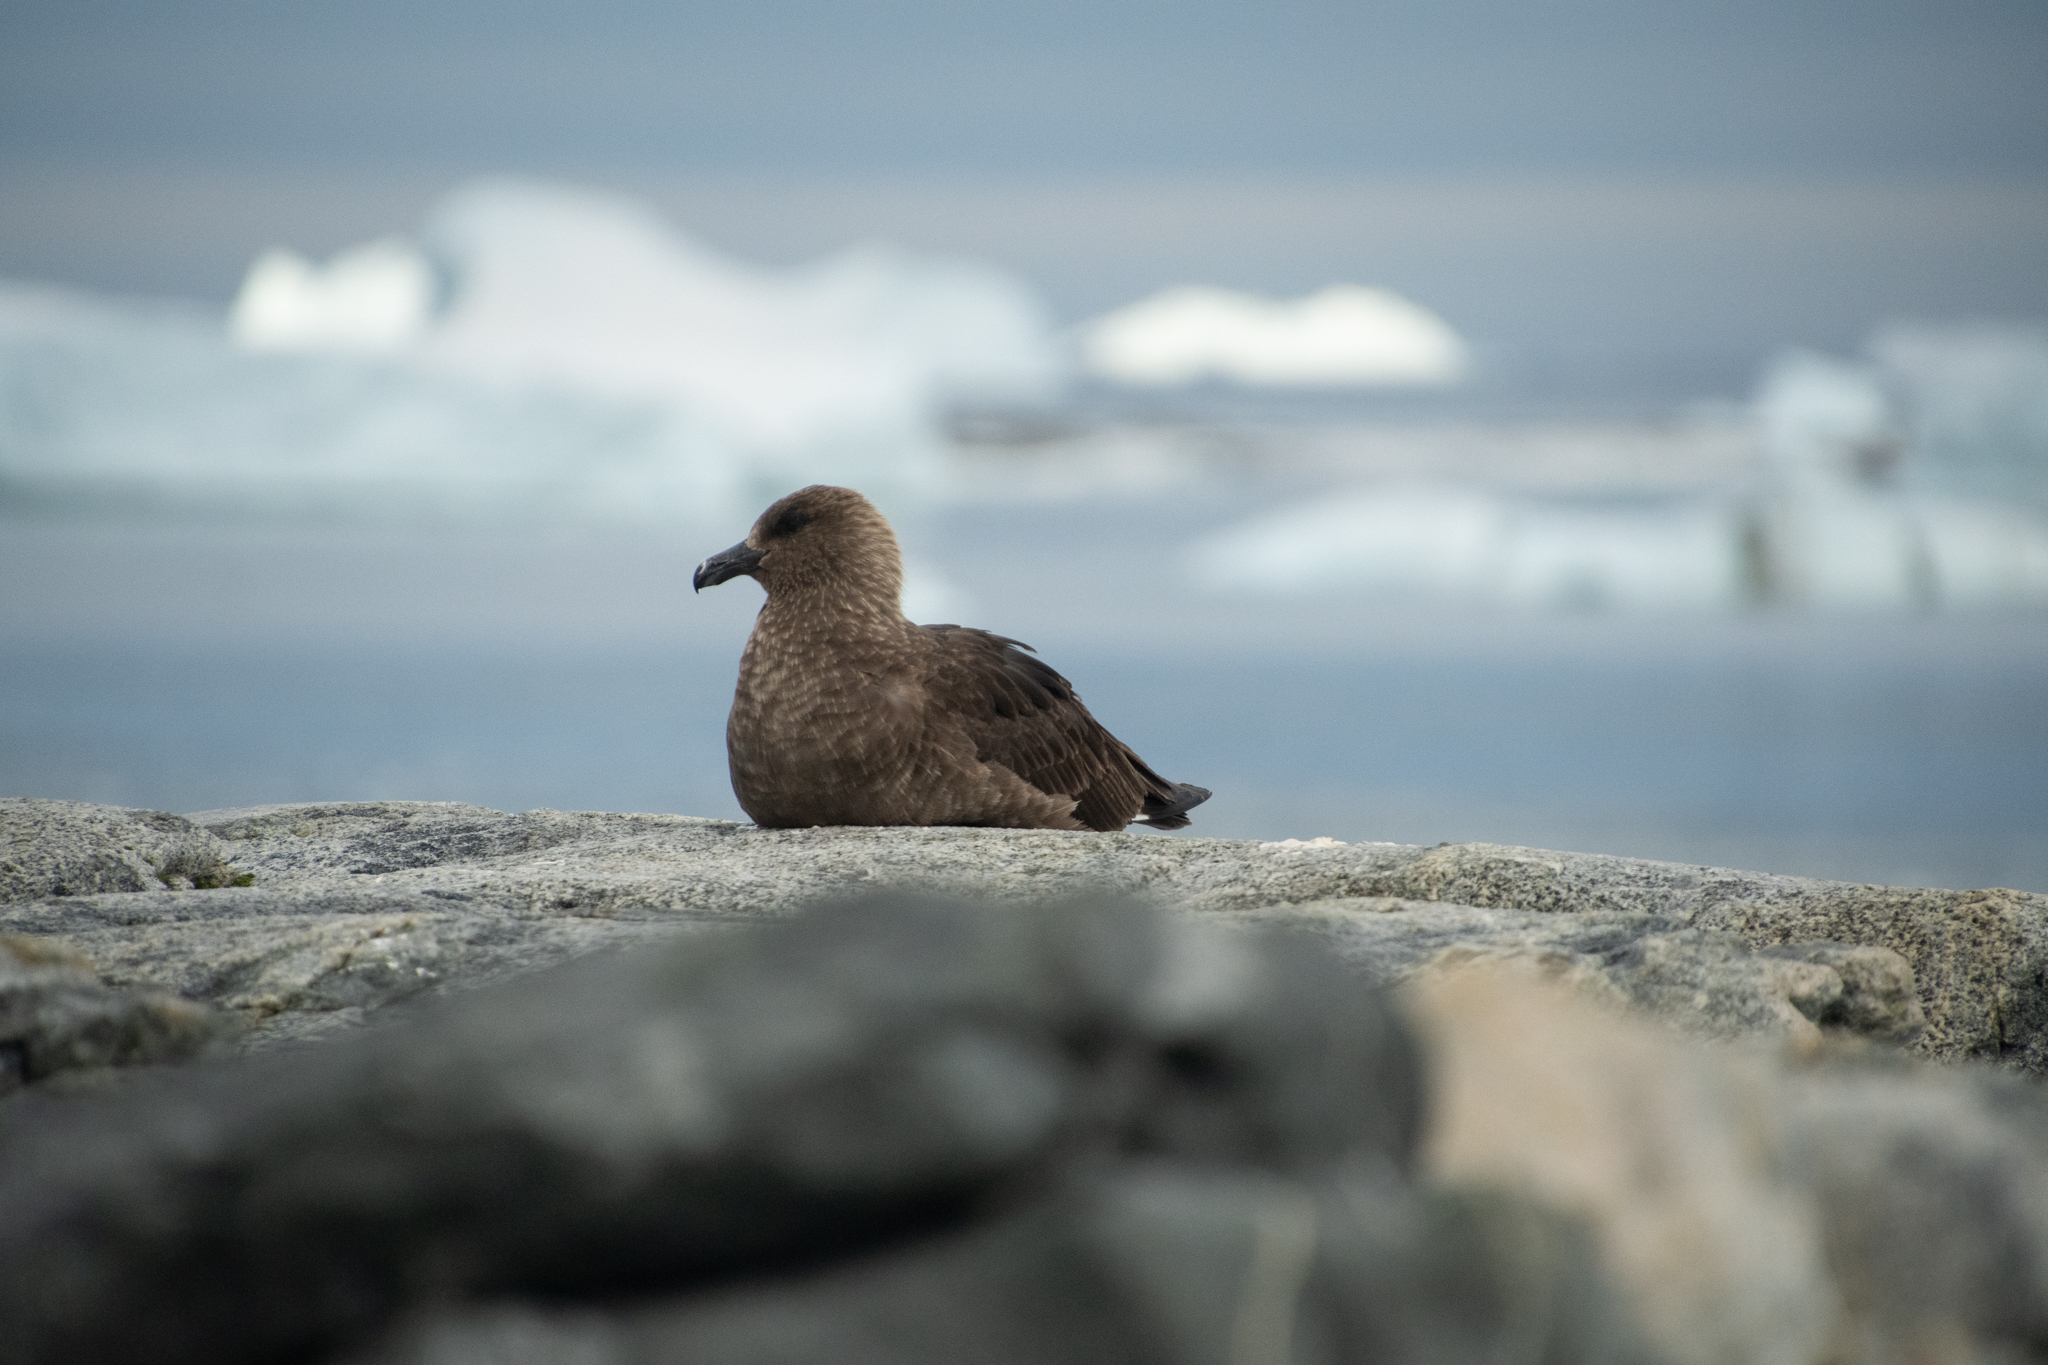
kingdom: Animalia
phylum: Chordata
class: Aves
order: Charadriiformes
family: Stercorariidae
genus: Stercorarius
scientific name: Stercorarius maccormicki
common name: South polar skua
